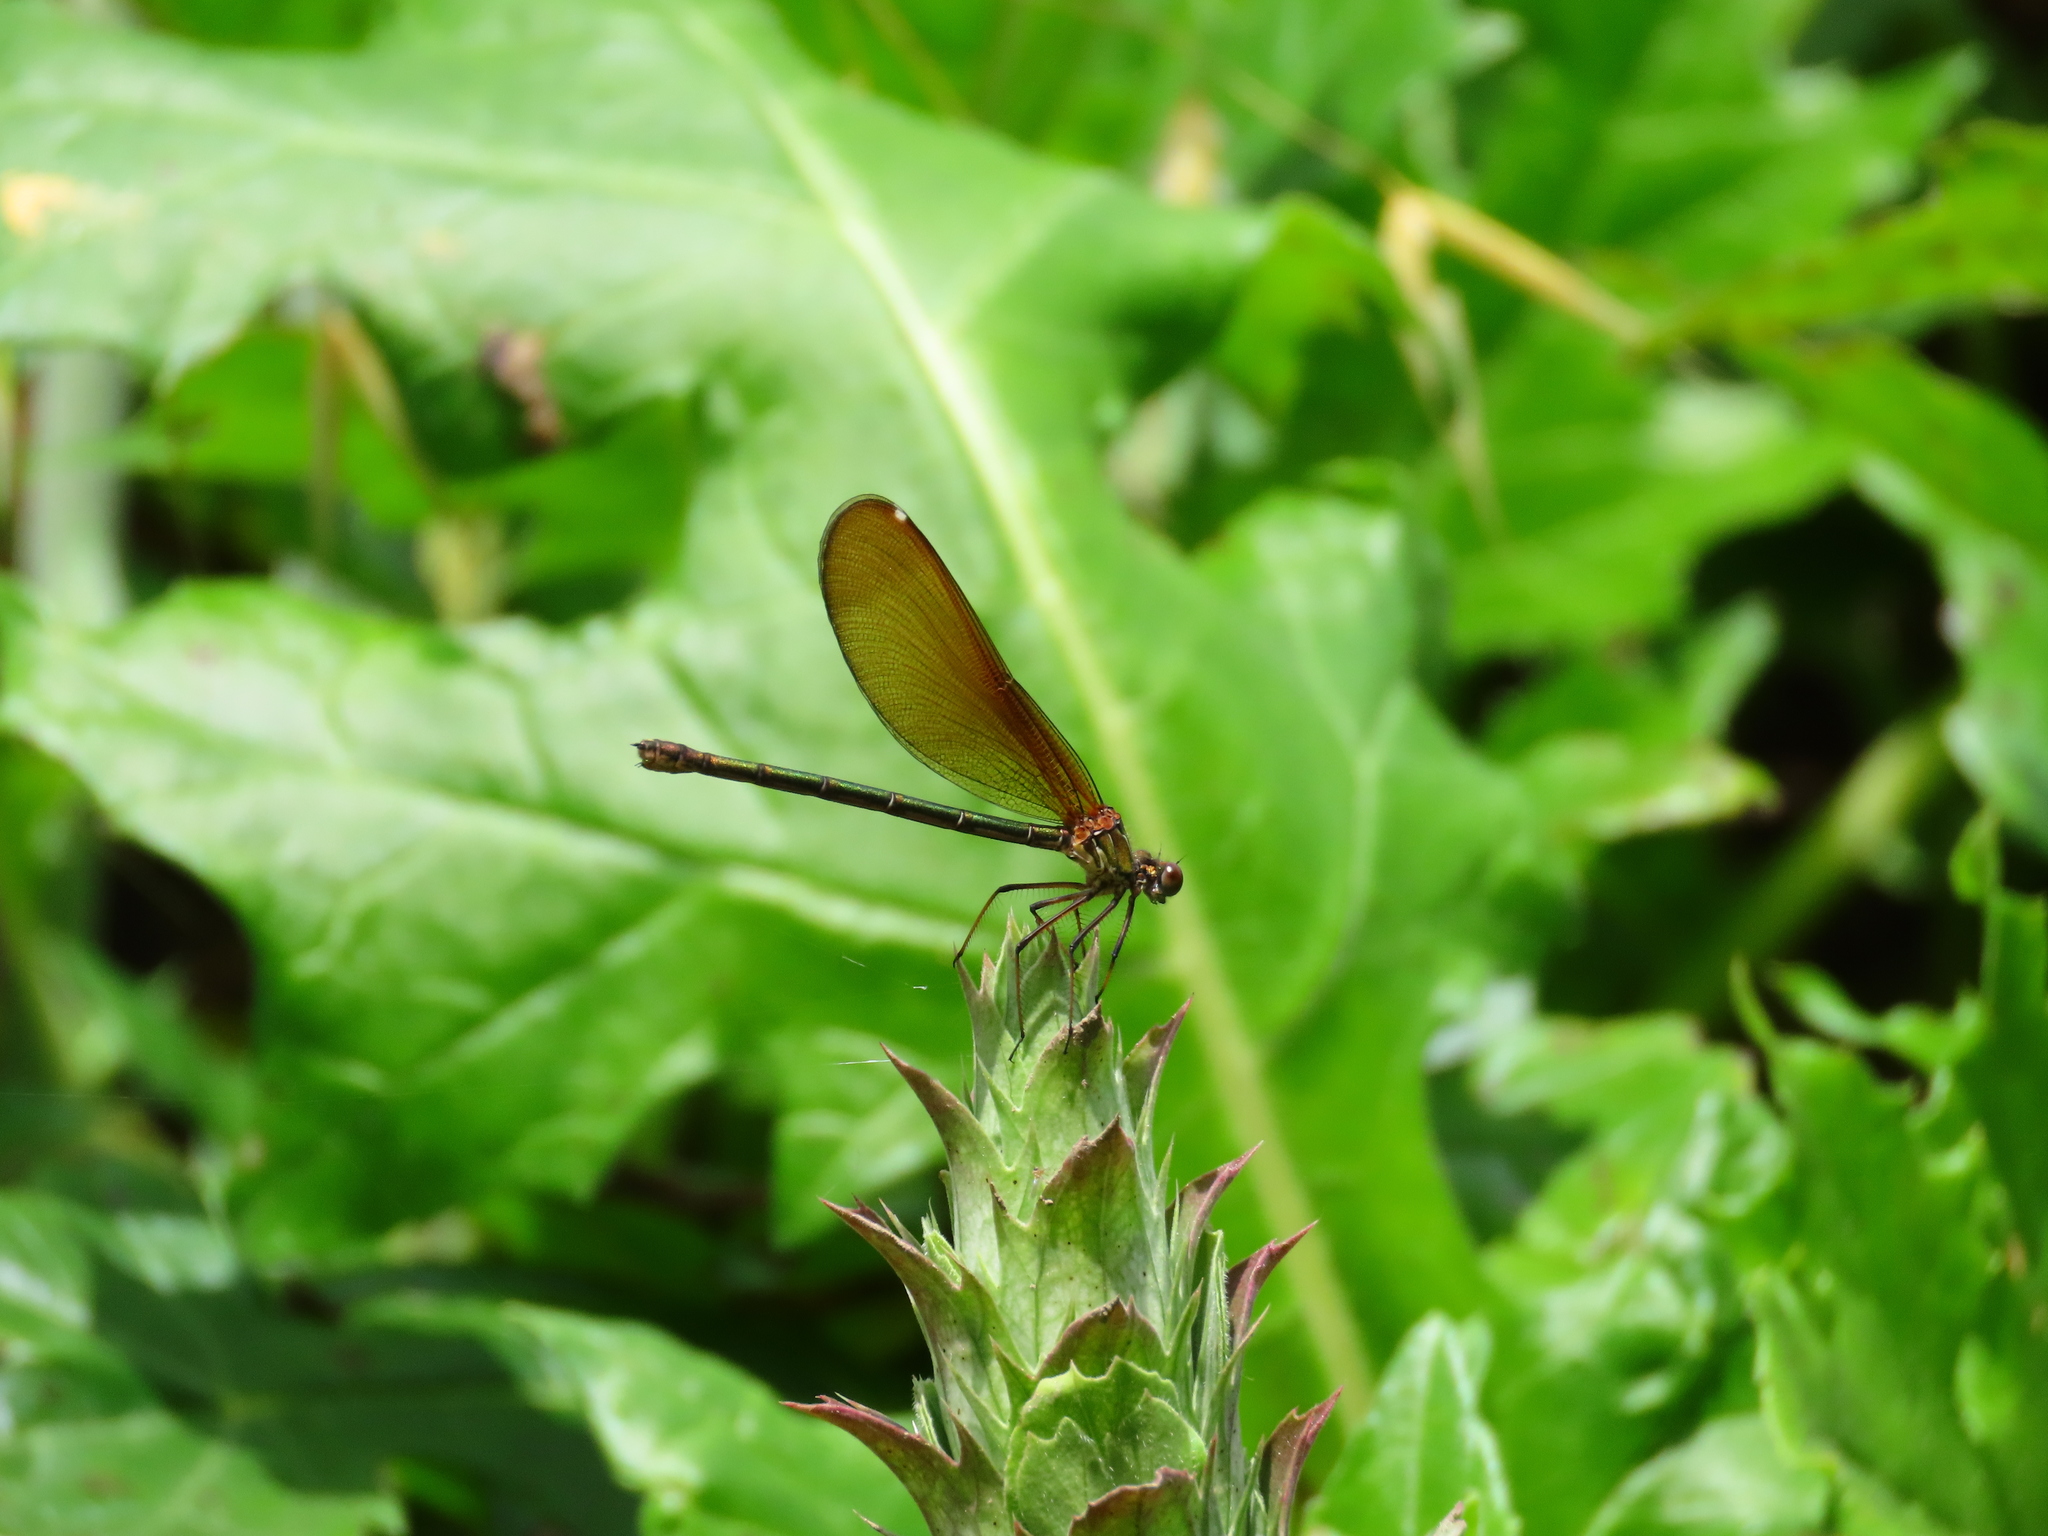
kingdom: Animalia
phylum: Arthropoda
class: Insecta
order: Odonata
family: Calopterygidae
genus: Calopteryx
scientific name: Calopteryx haemorrhoidalis
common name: Copper demoiselle
